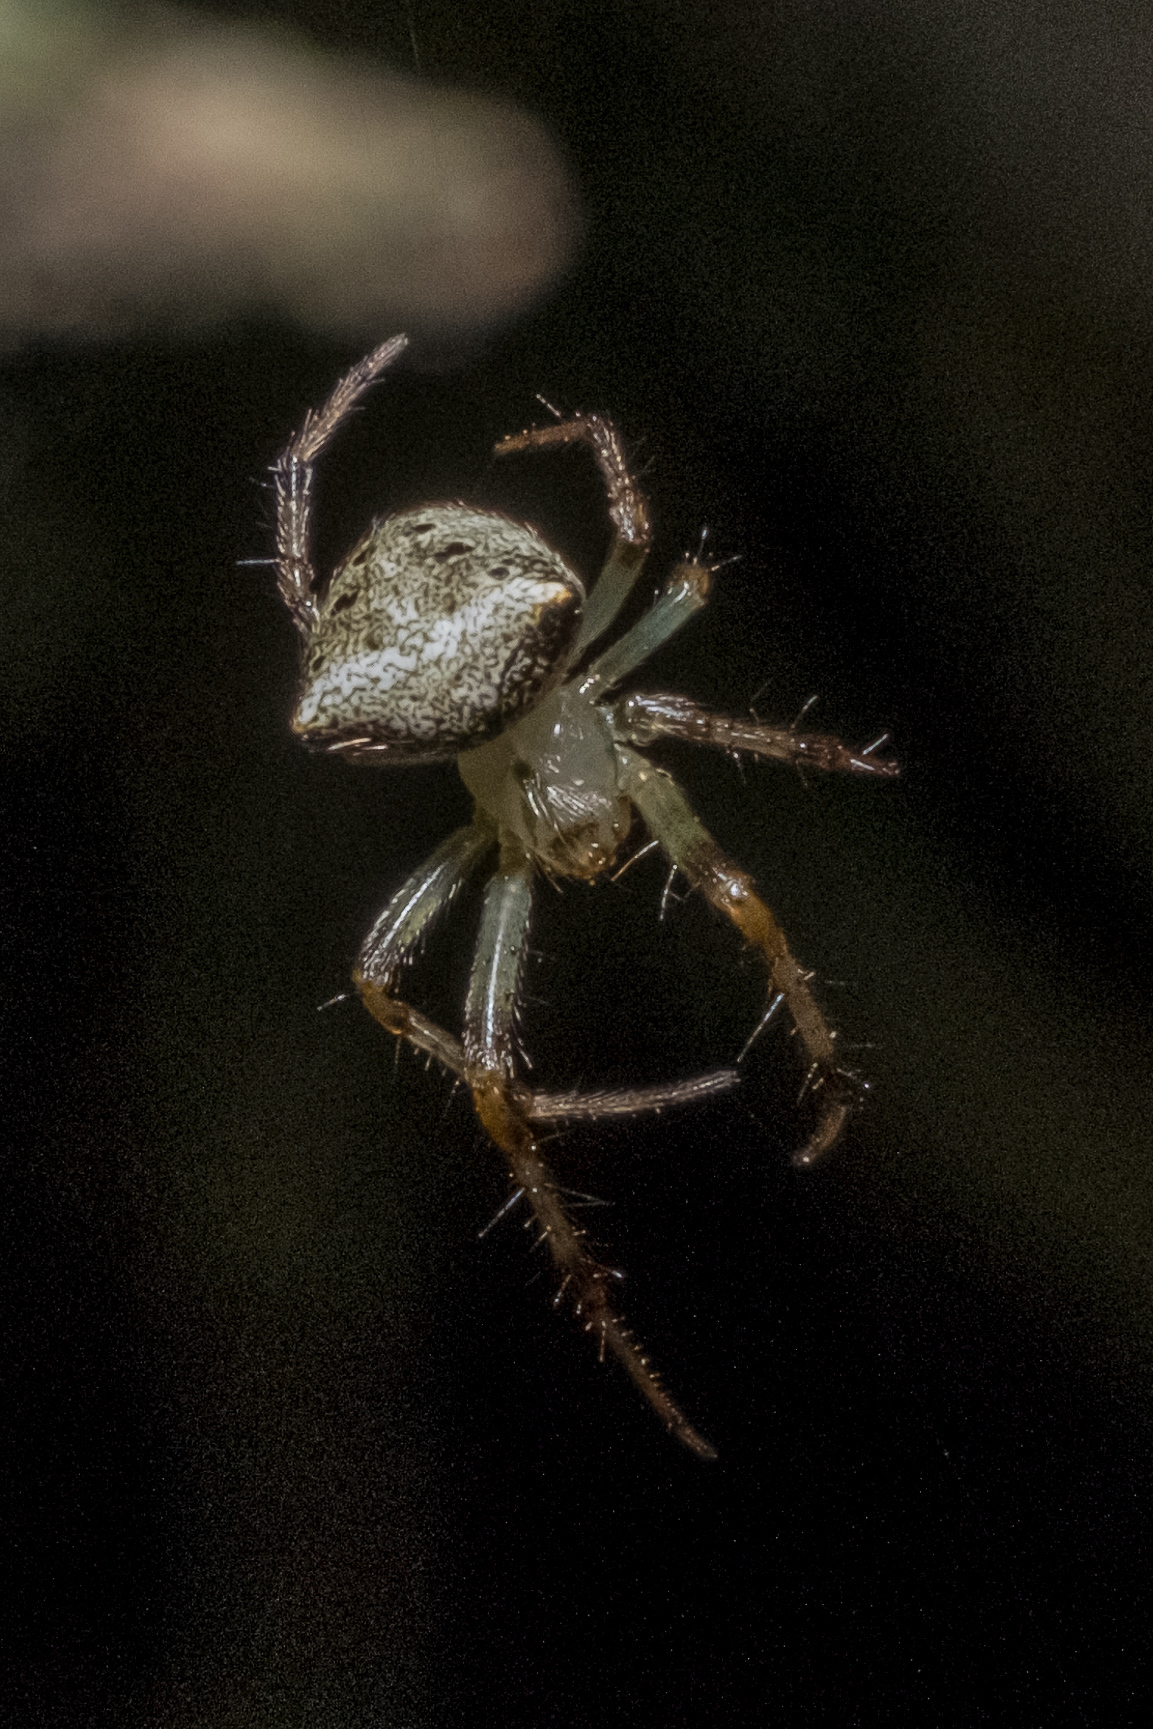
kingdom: Animalia
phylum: Arthropoda
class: Arachnida
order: Araneae
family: Araneidae
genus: Araneus
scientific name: Araneus miniatus
